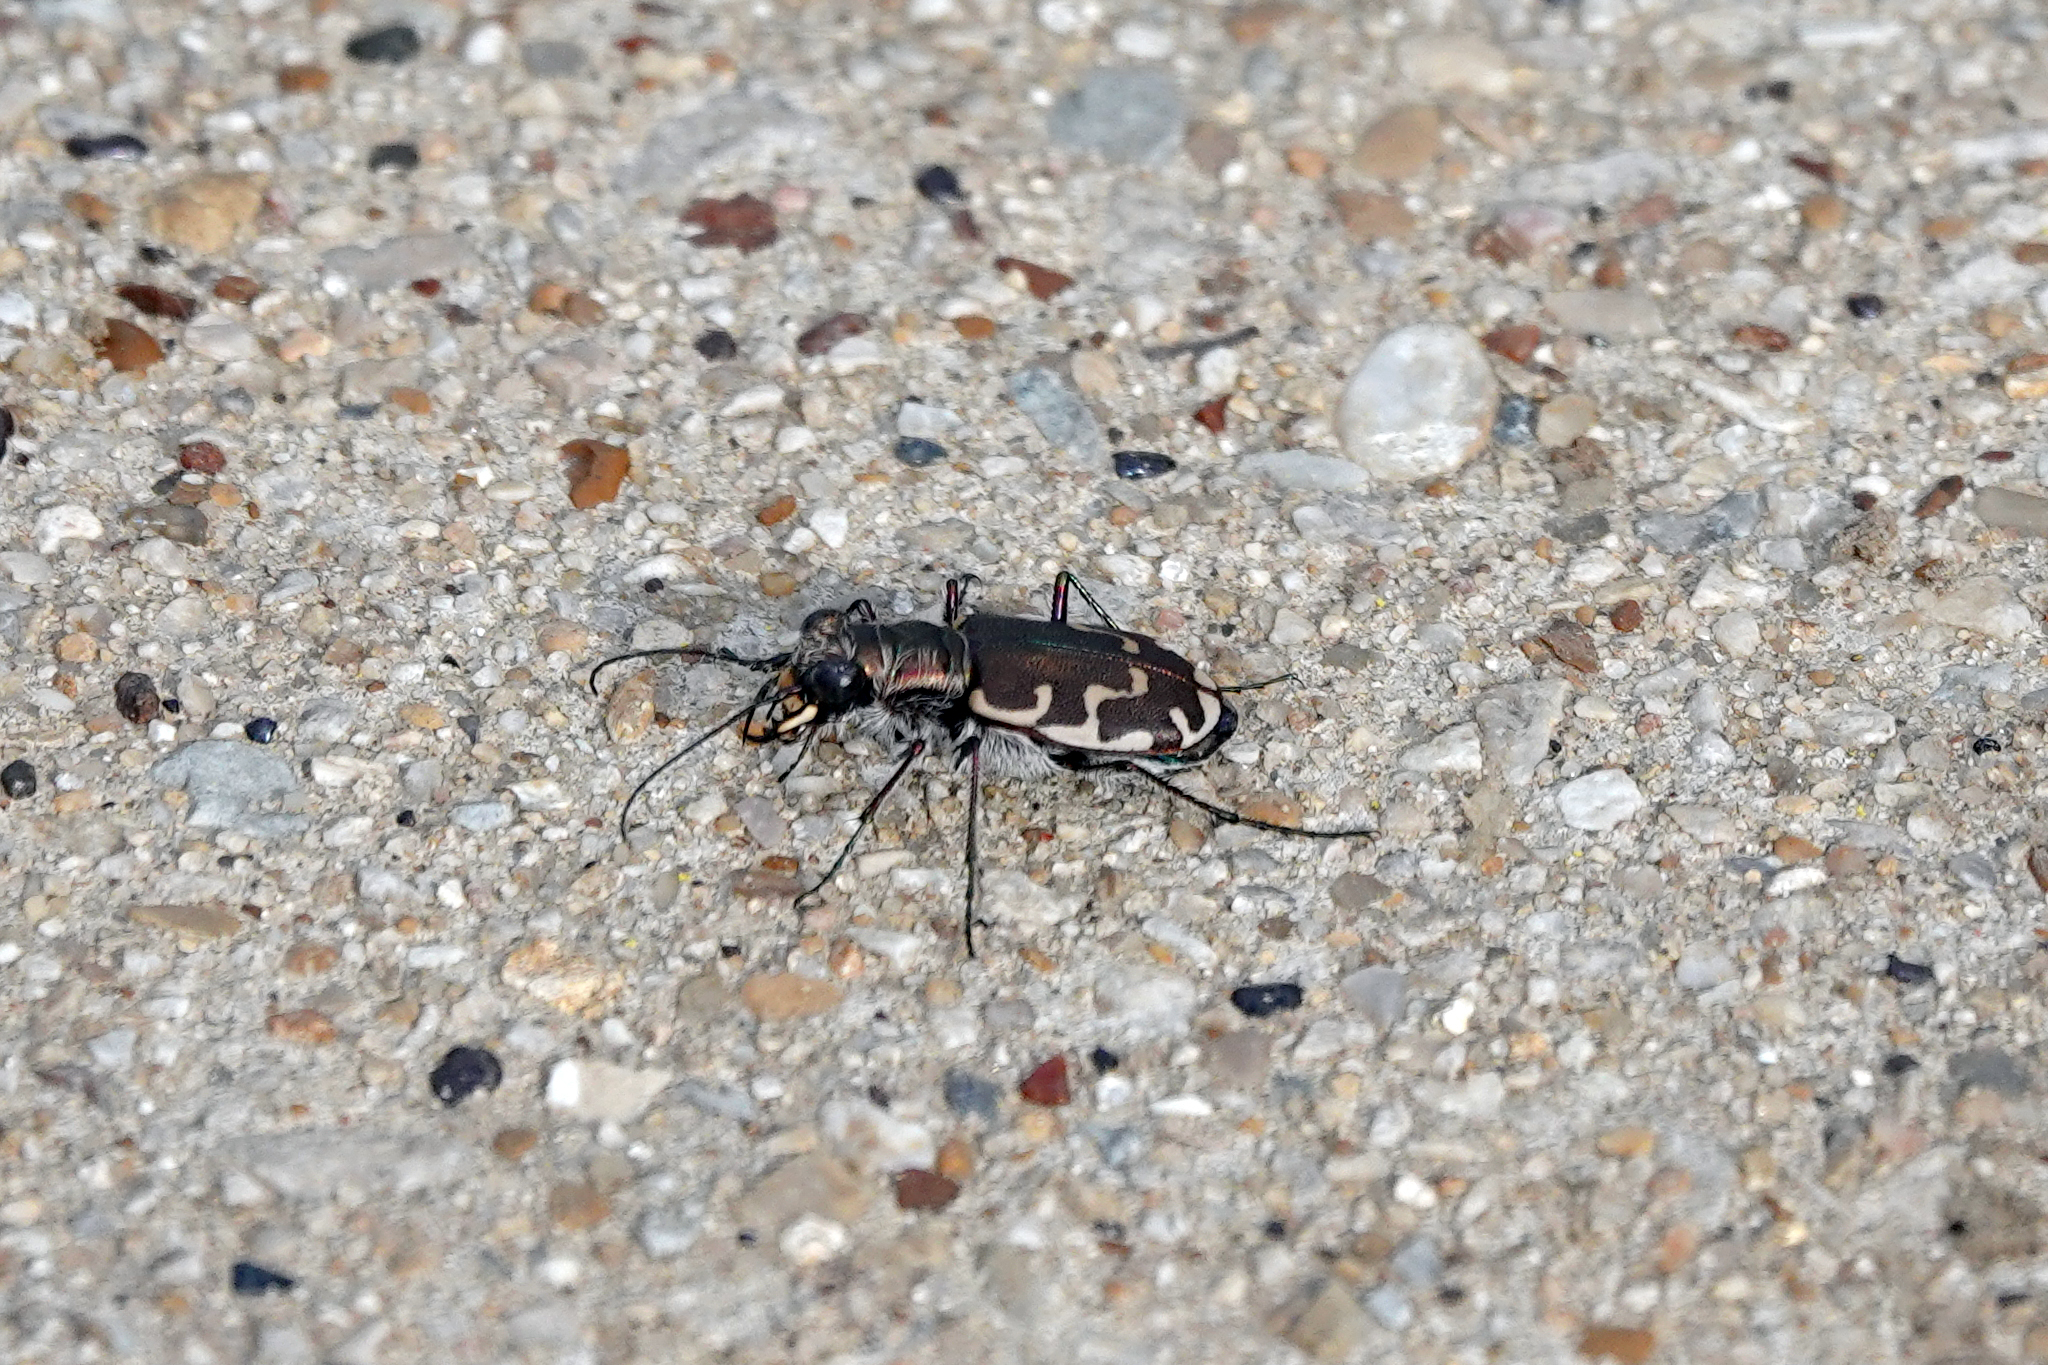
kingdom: Animalia
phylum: Arthropoda
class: Insecta
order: Coleoptera
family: Carabidae
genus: Cicindela
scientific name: Cicindela repanda
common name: Bronzed tiger beetle
